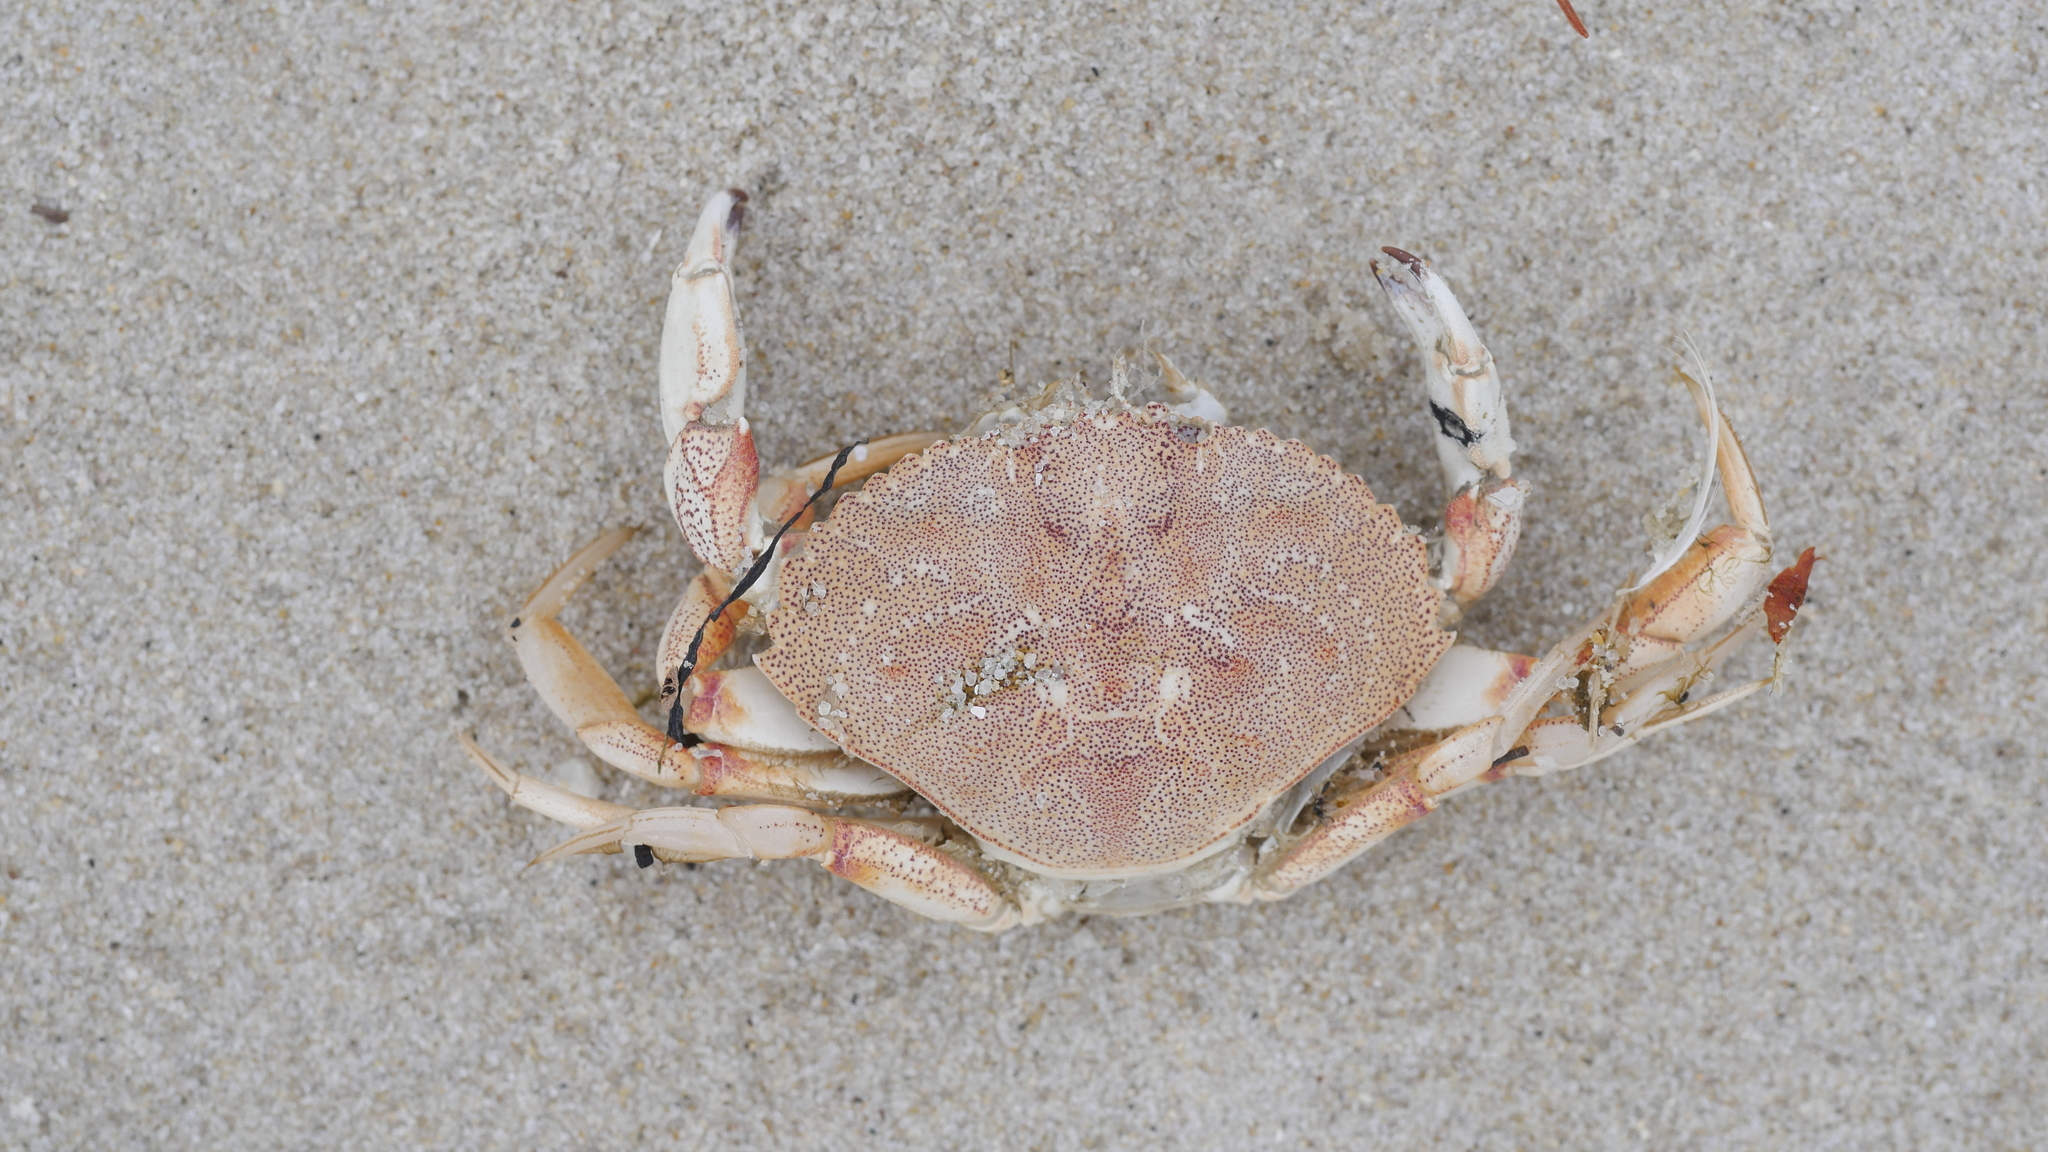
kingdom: Animalia
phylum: Arthropoda
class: Malacostraca
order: Decapoda
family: Cancridae
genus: Cancer
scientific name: Cancer irroratus
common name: Atlantic rock crab
